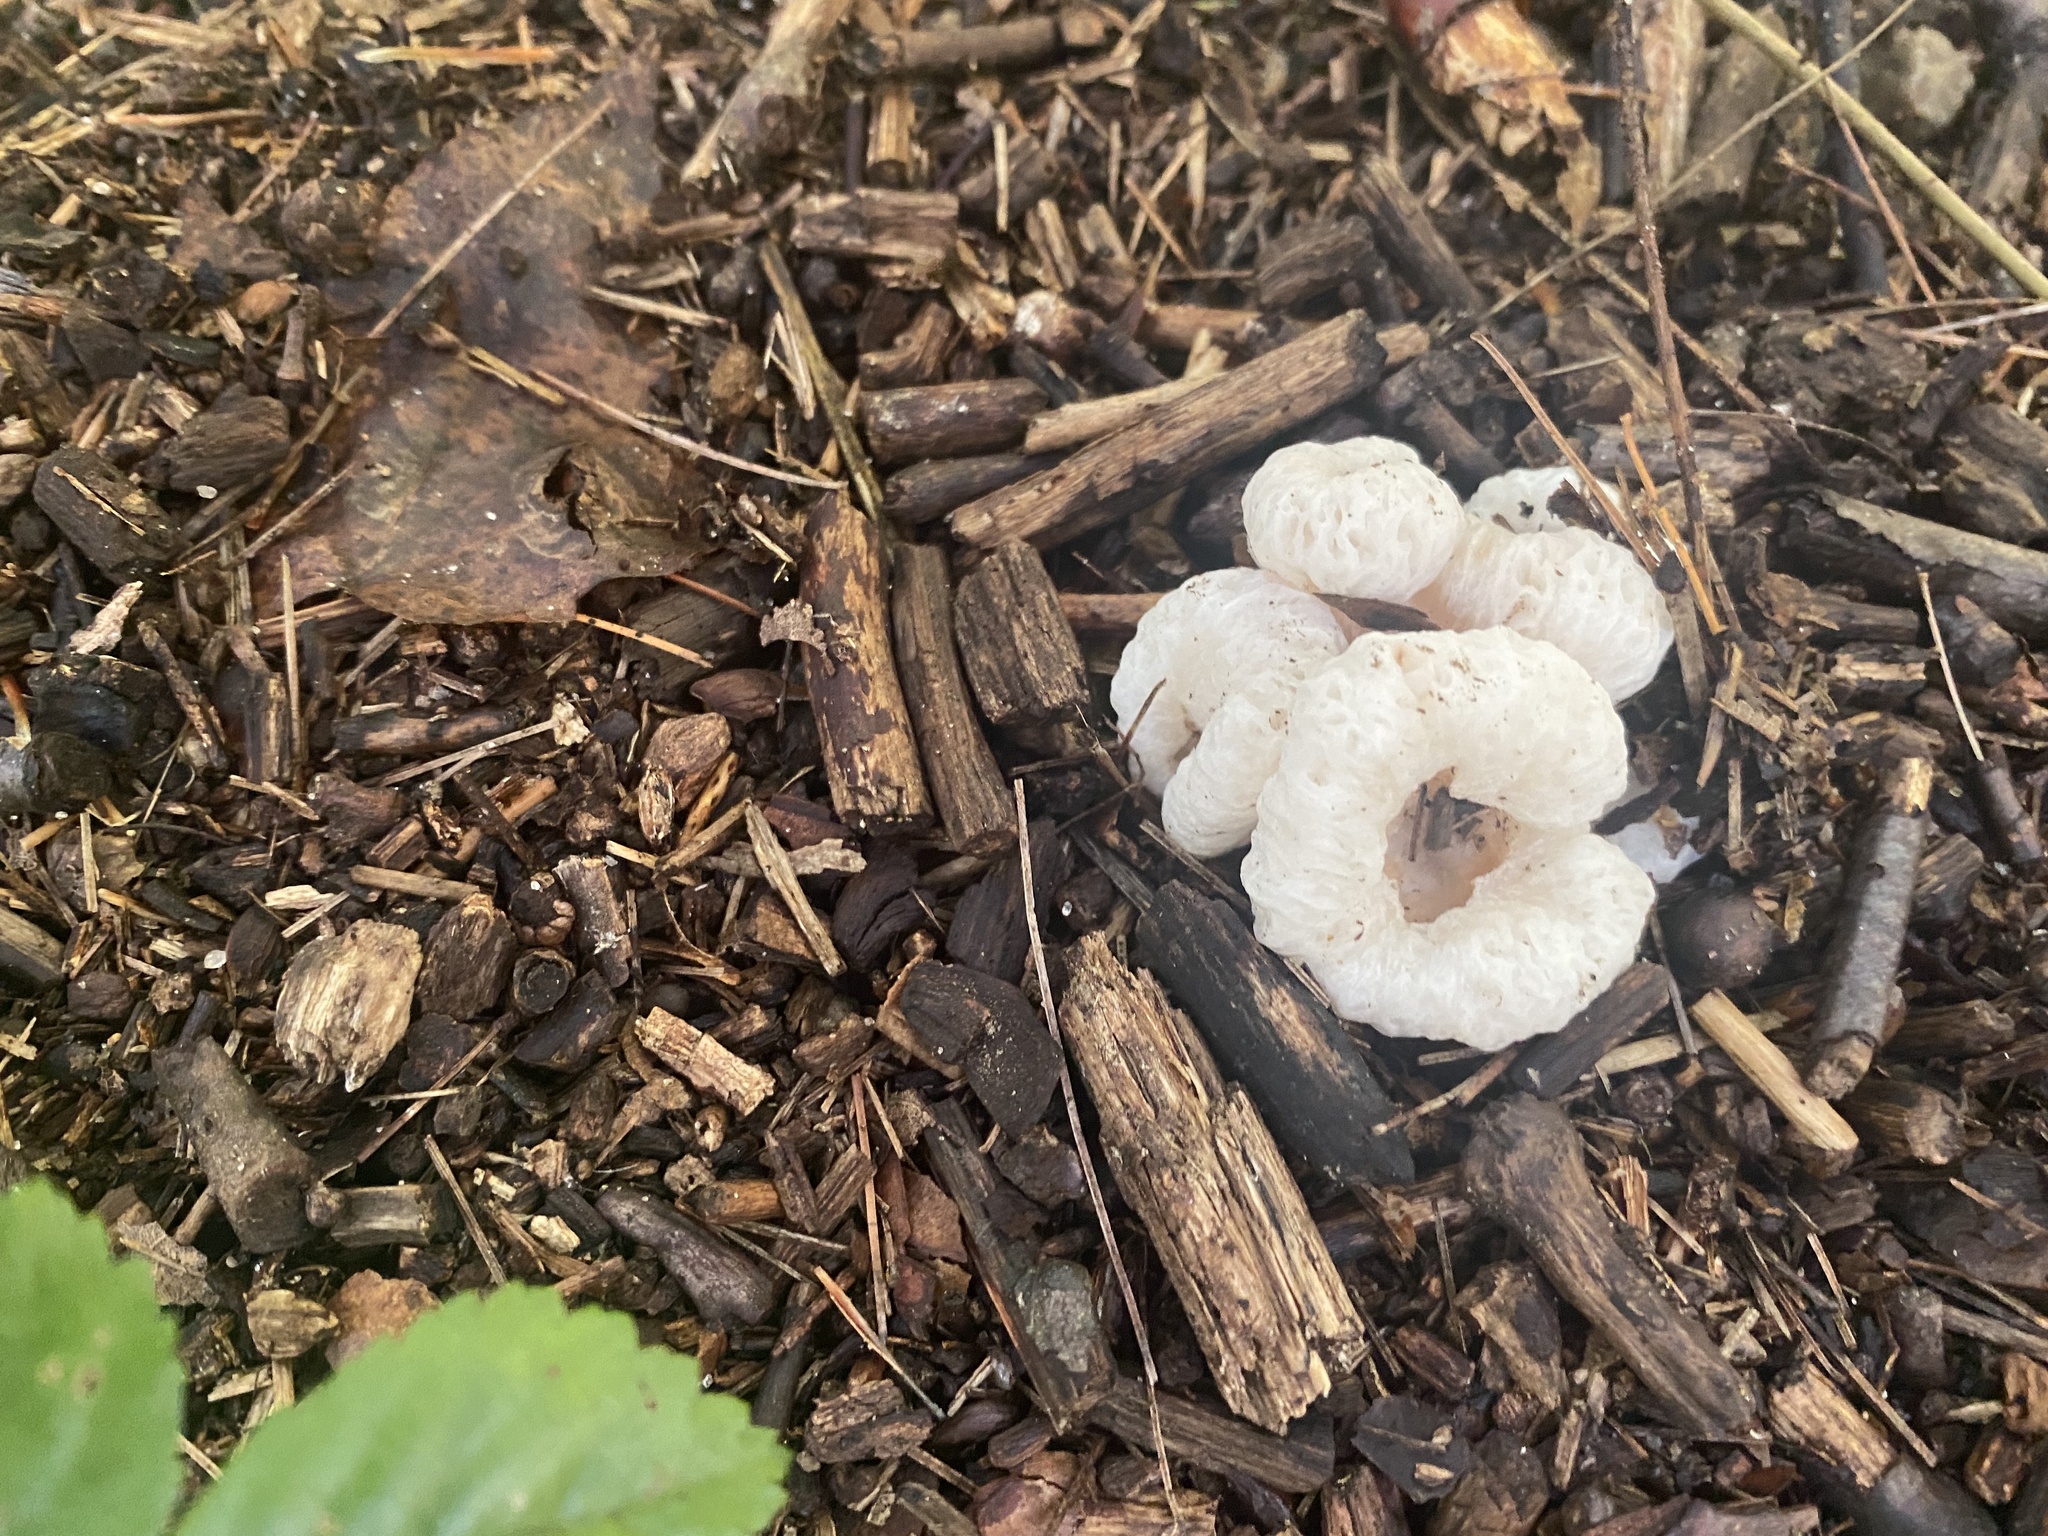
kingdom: Fungi
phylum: Basidiomycota
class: Agaricomycetes
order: Agaricales
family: Entolomataceae
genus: Entoloma
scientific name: Entoloma abortivum
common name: Aborted entoloma
